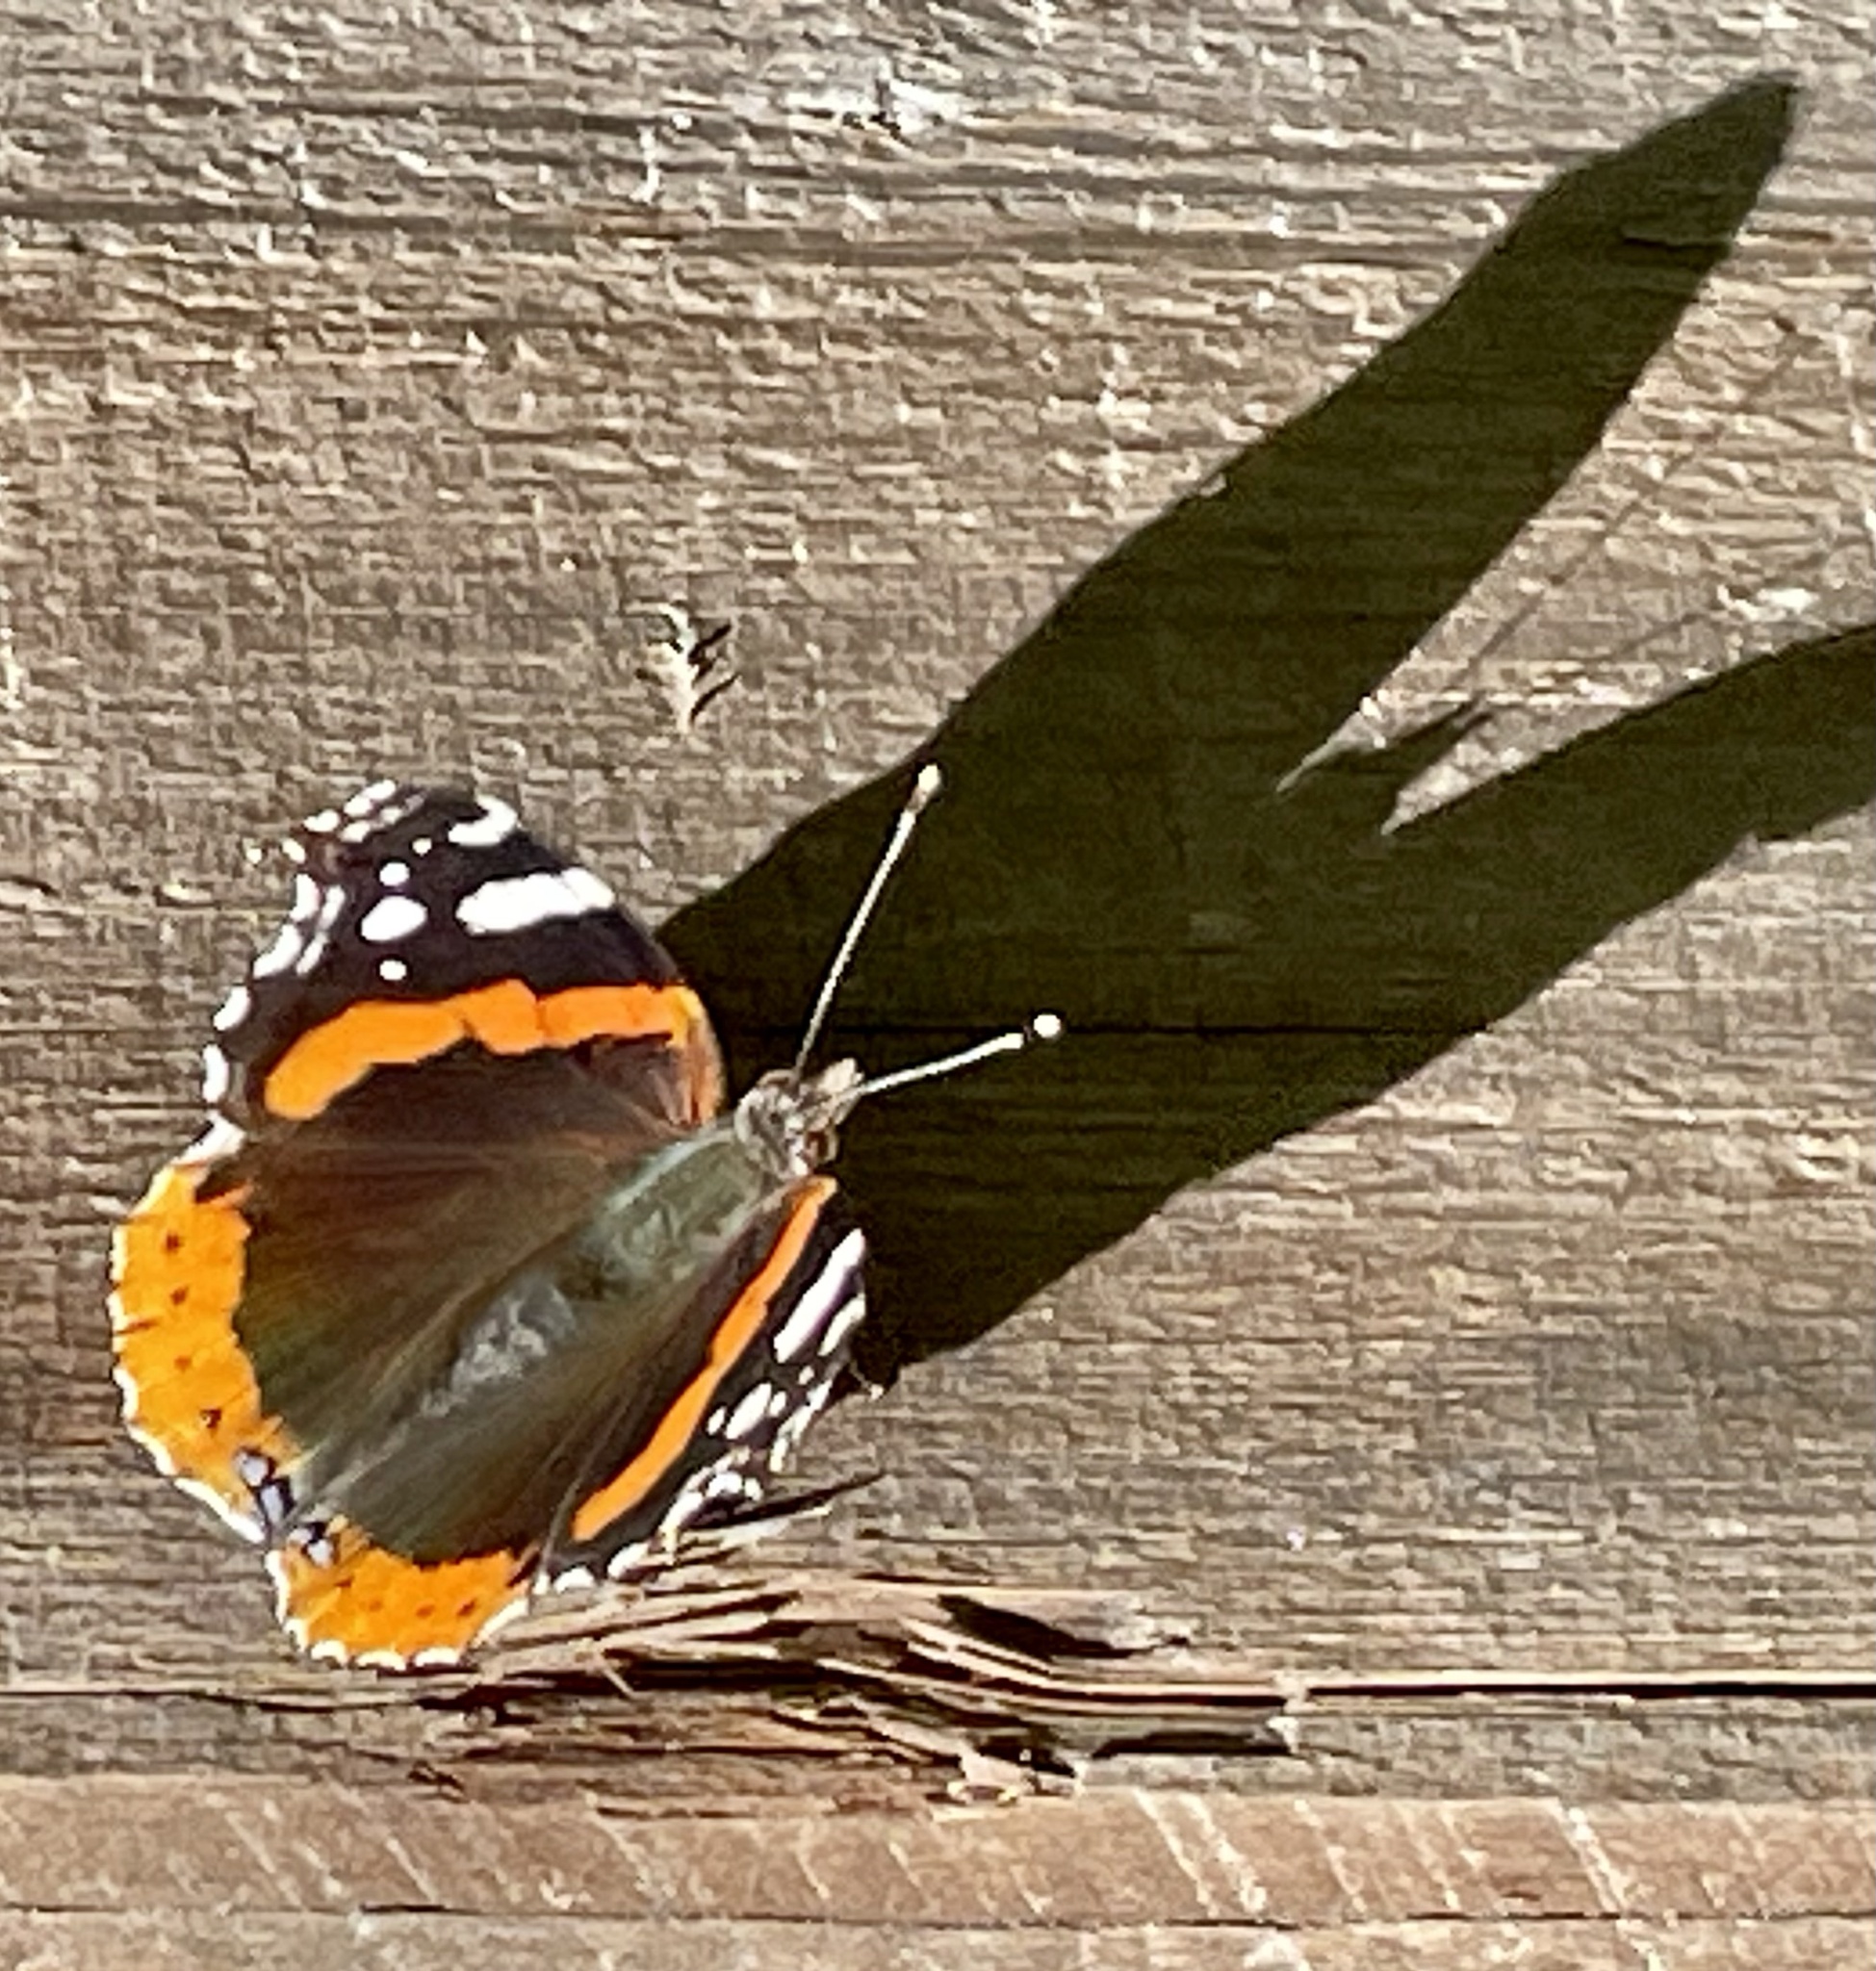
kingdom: Animalia
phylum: Arthropoda
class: Insecta
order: Lepidoptera
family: Nymphalidae
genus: Vanessa
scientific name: Vanessa atalanta
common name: Red admiral
